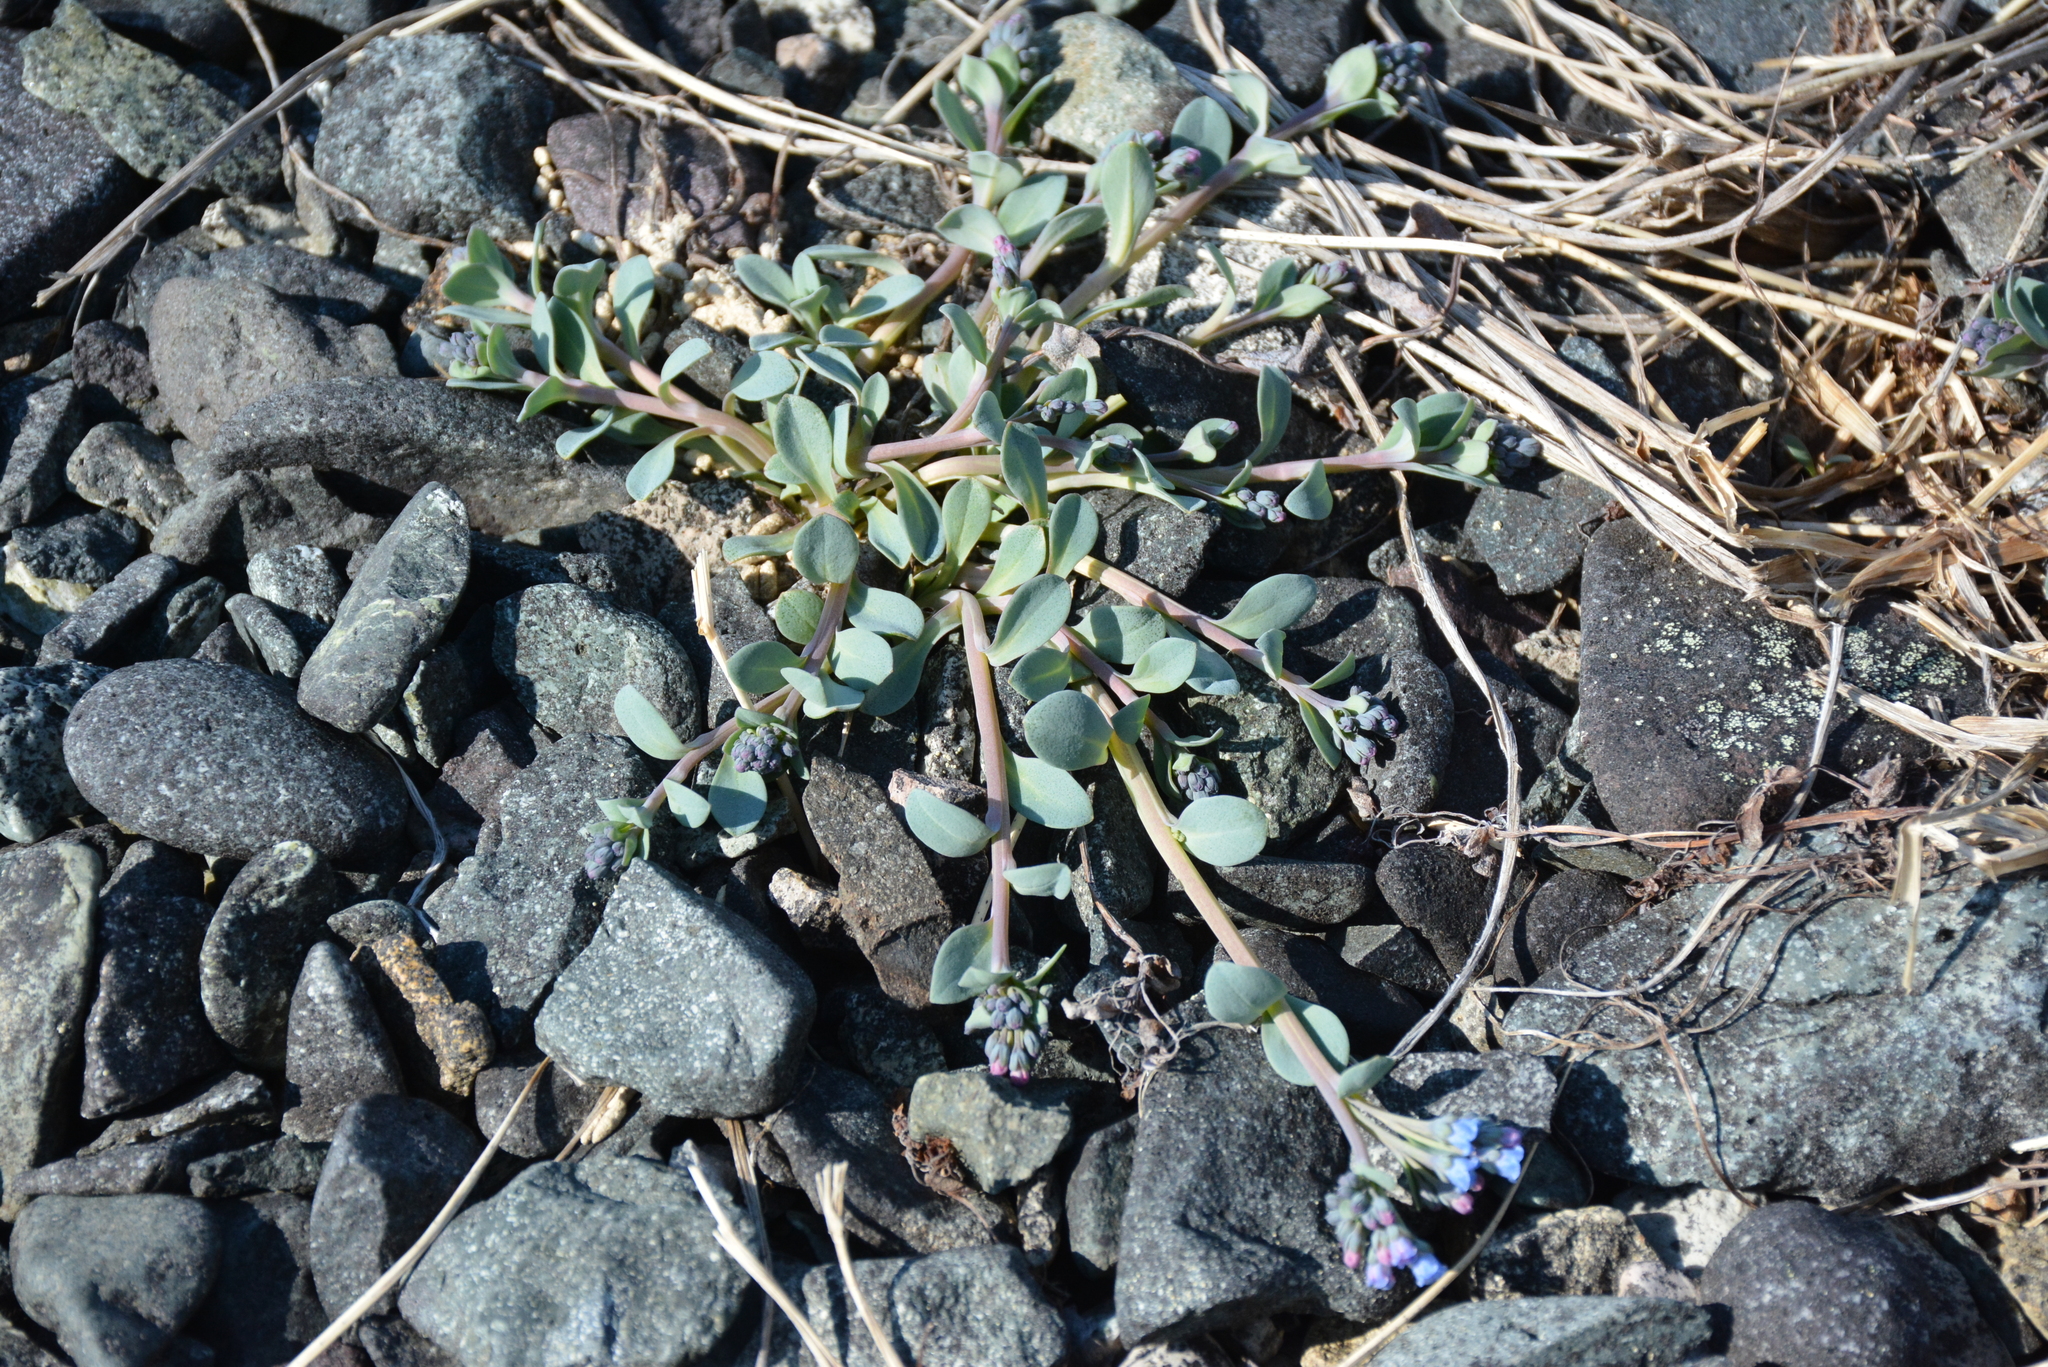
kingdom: Plantae
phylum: Tracheophyta
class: Magnoliopsida
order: Boraginales
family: Boraginaceae
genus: Mertensia
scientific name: Mertensia maritima
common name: Oysterplant
